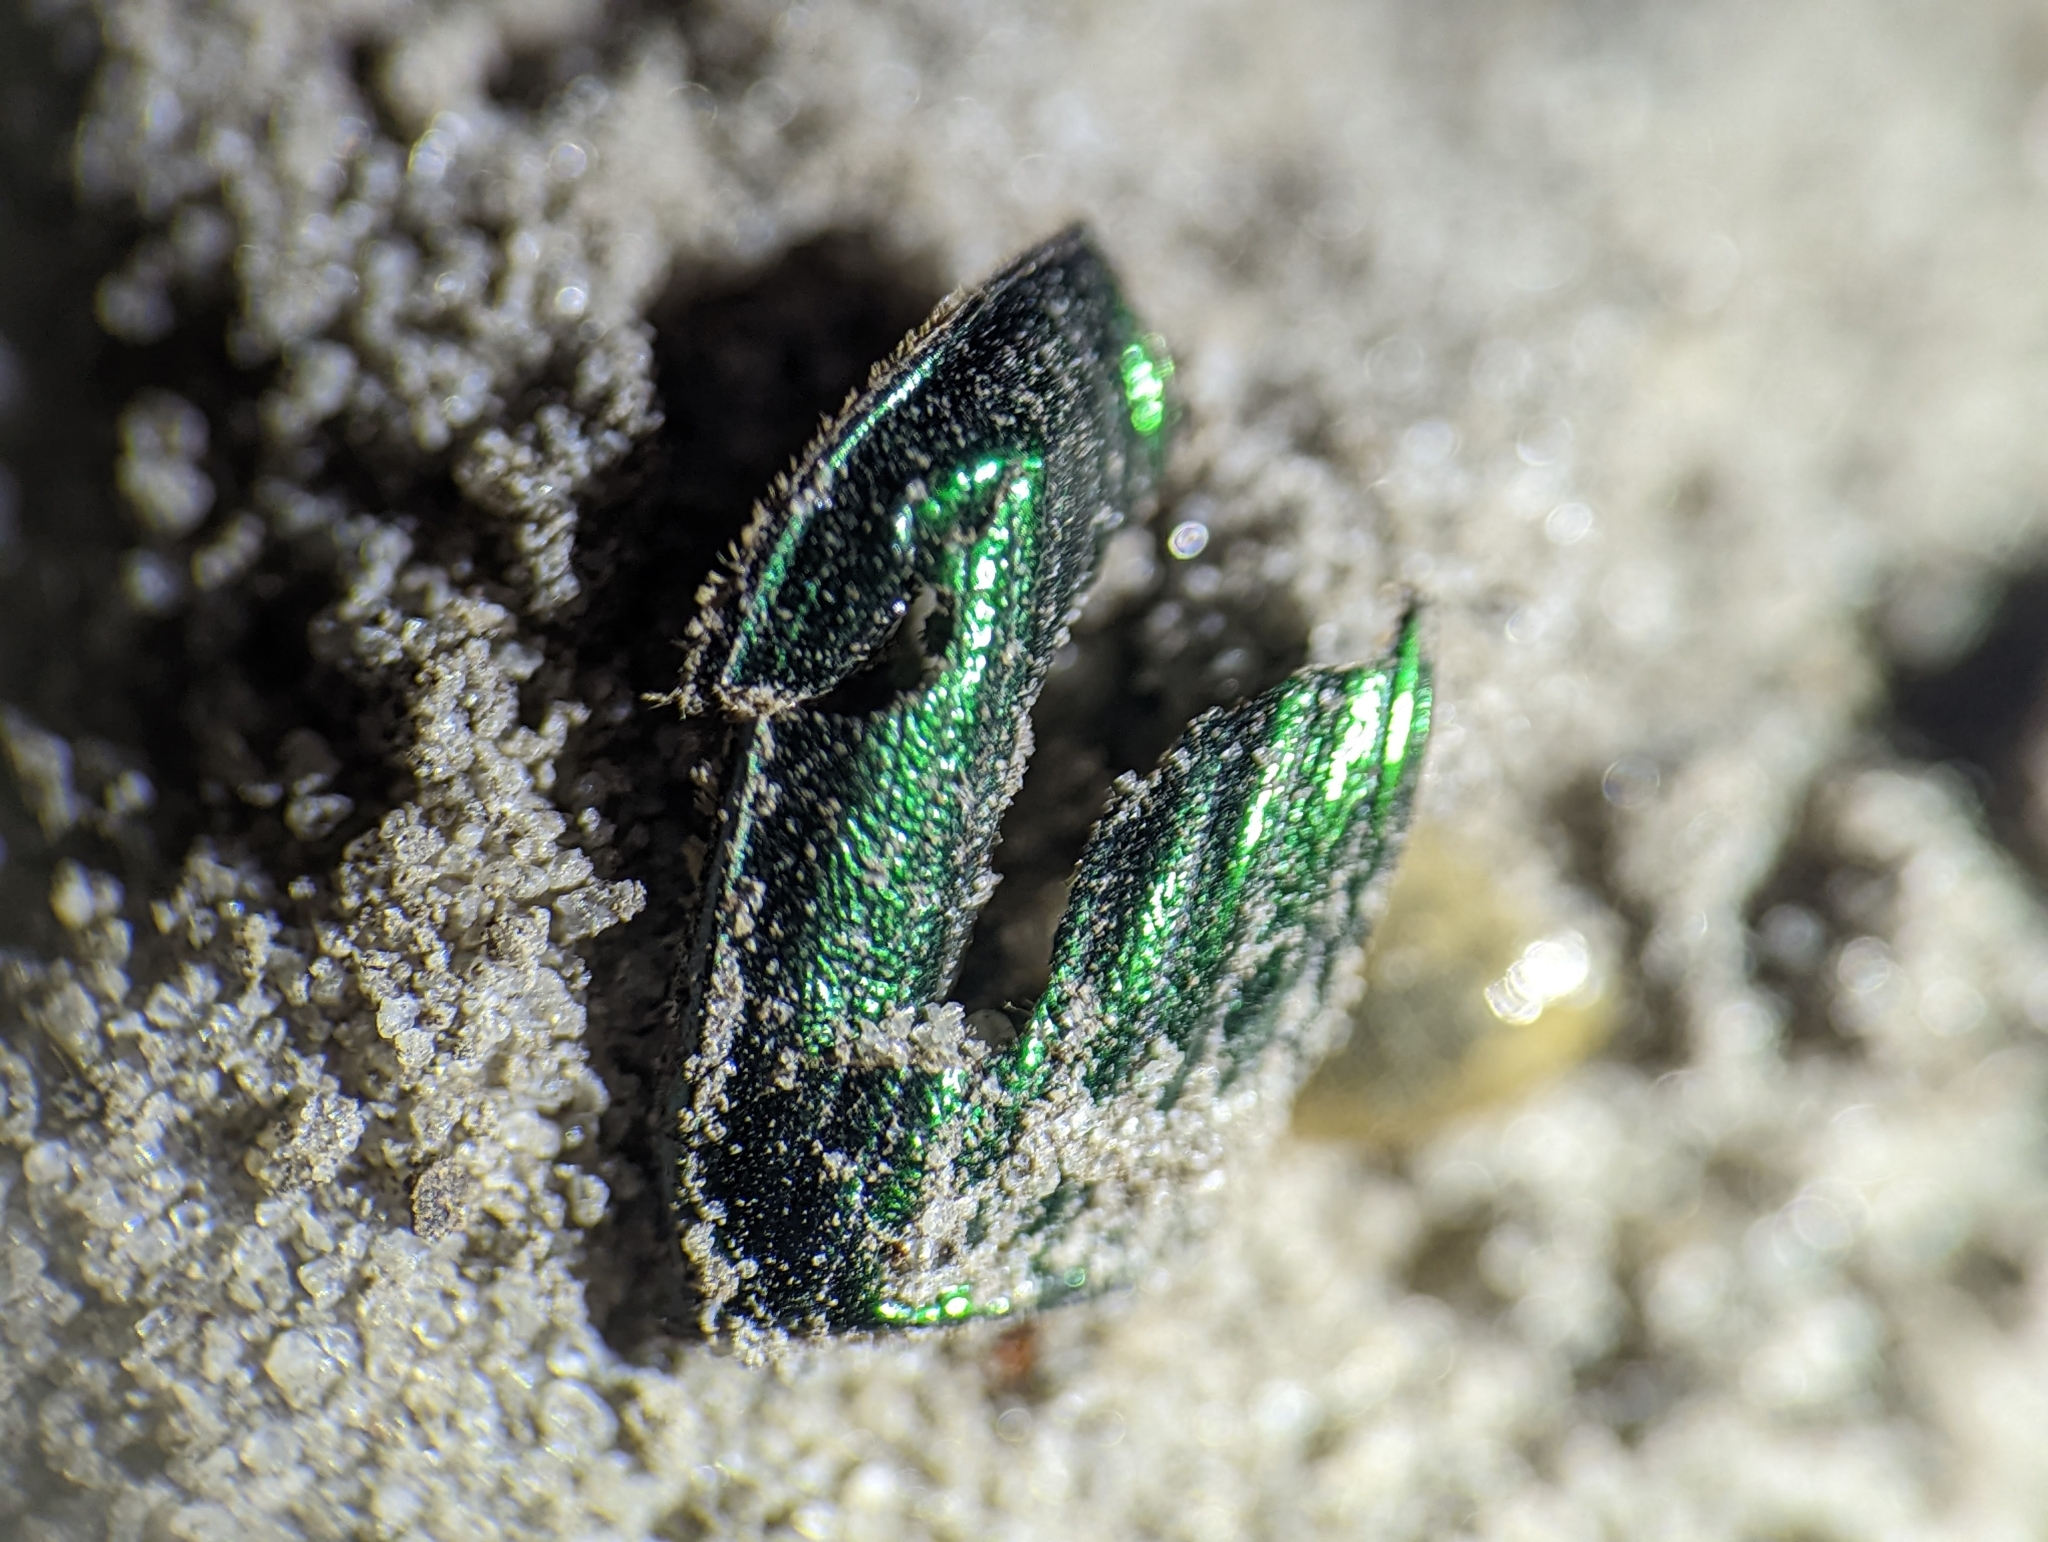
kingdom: Animalia
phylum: Arthropoda
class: Insecta
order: Coleoptera
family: Scarabaeidae
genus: Phanaeus
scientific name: Phanaeus igneus
